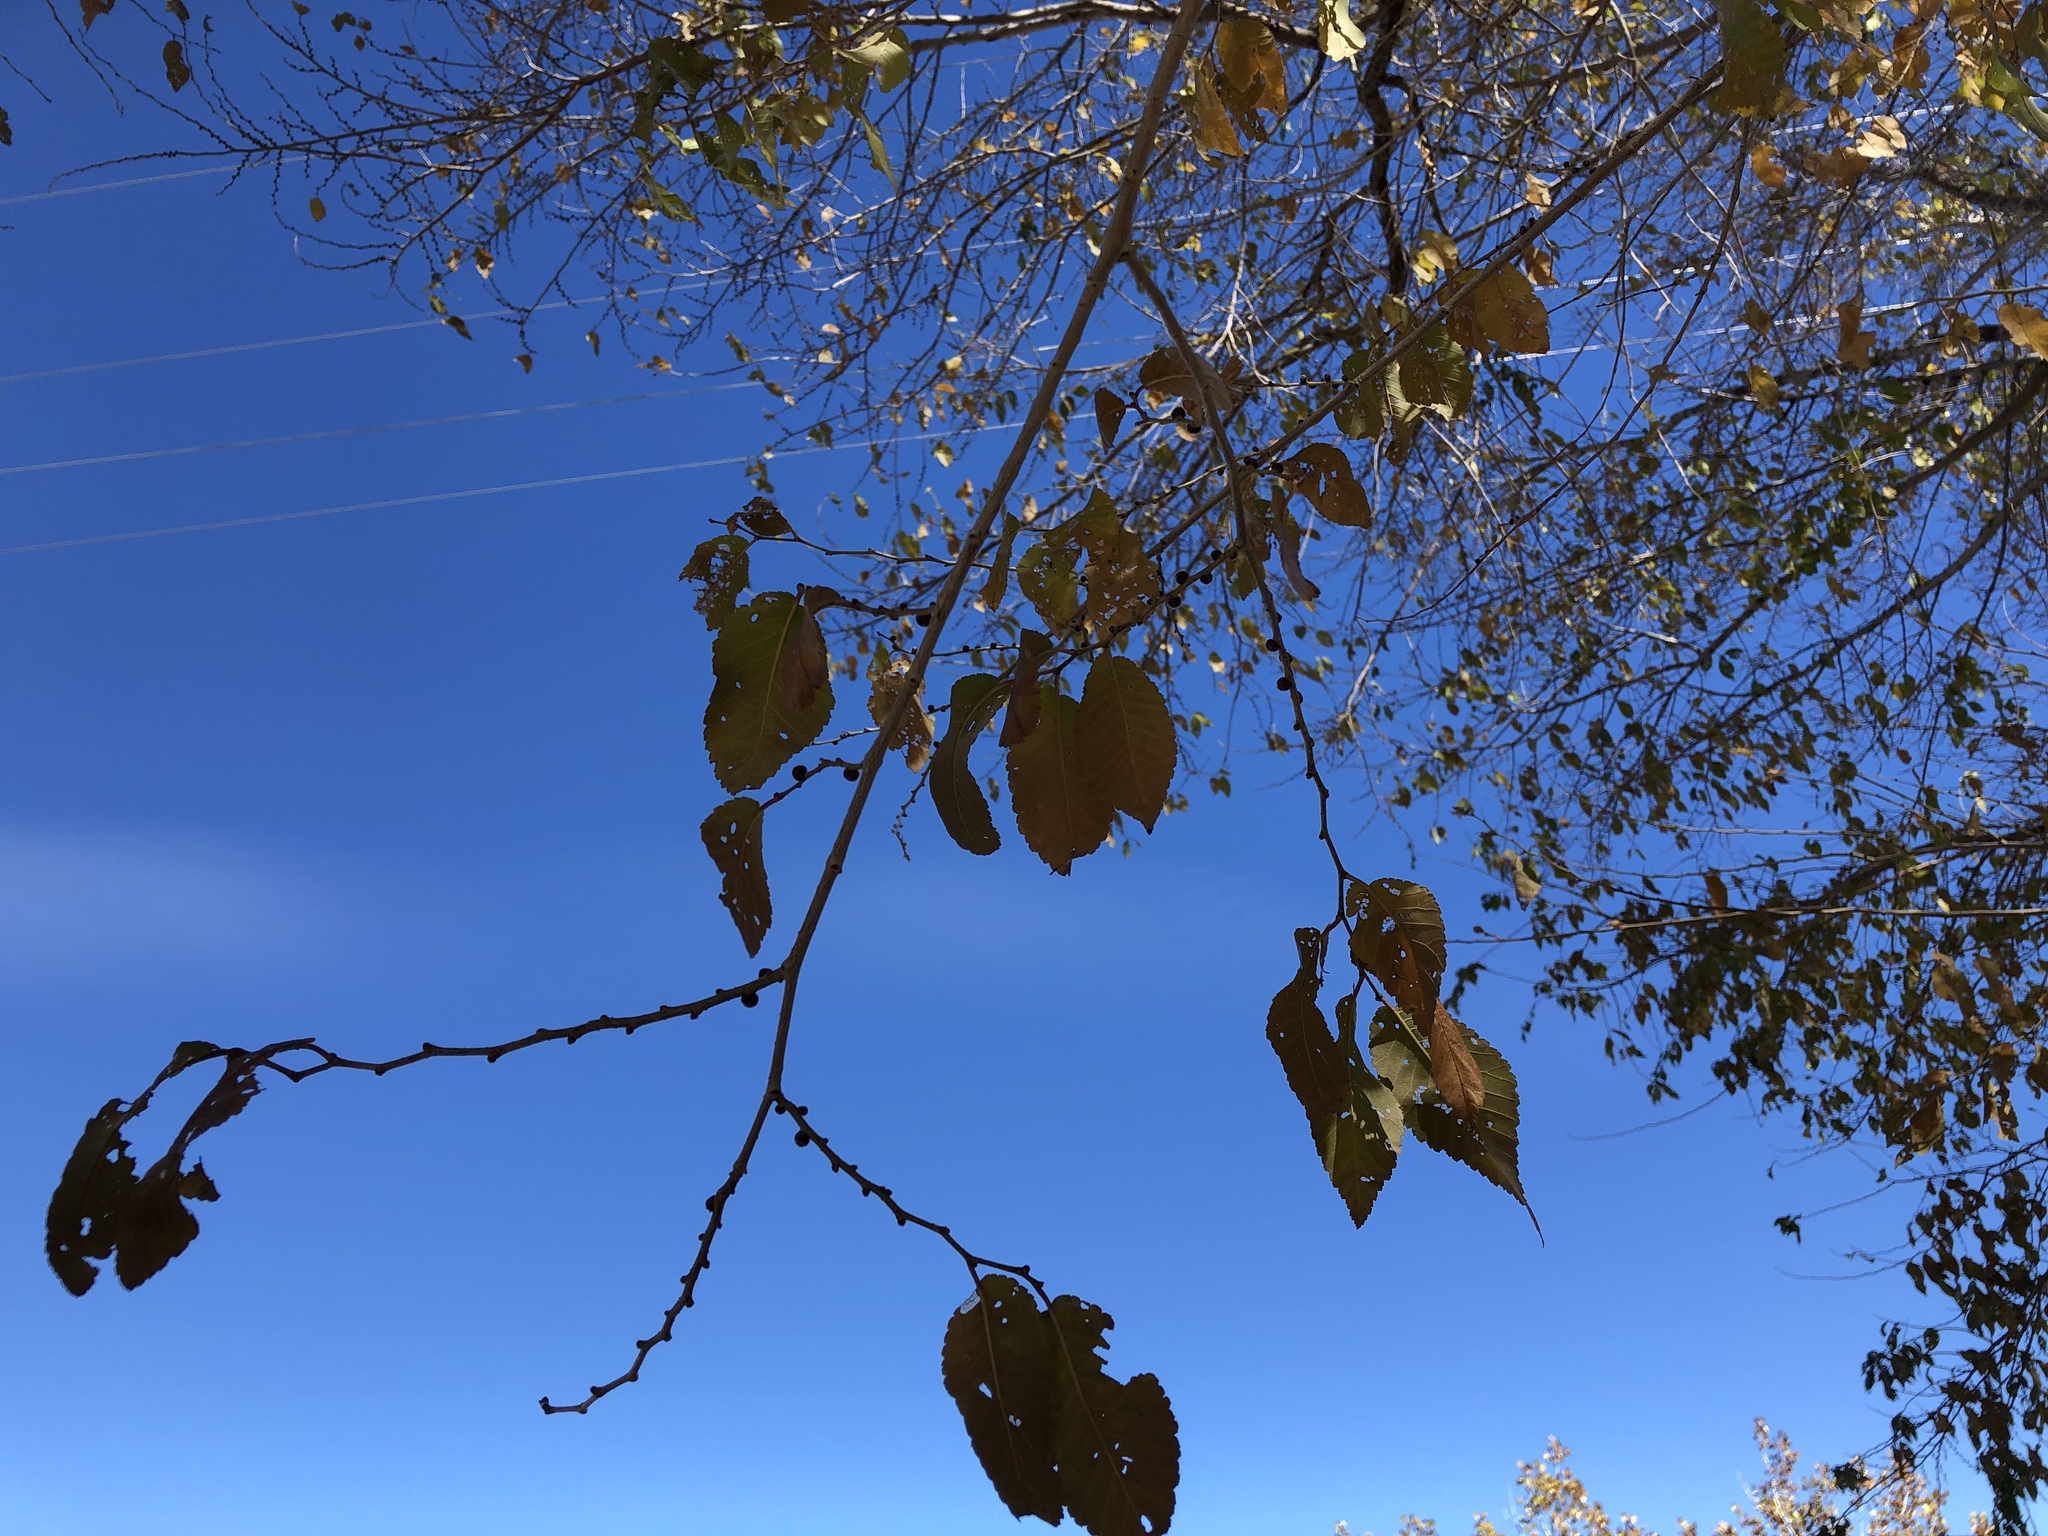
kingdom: Plantae
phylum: Tracheophyta
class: Magnoliopsida
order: Rosales
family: Ulmaceae
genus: Ulmus
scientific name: Ulmus pumila
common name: Siberian elm
